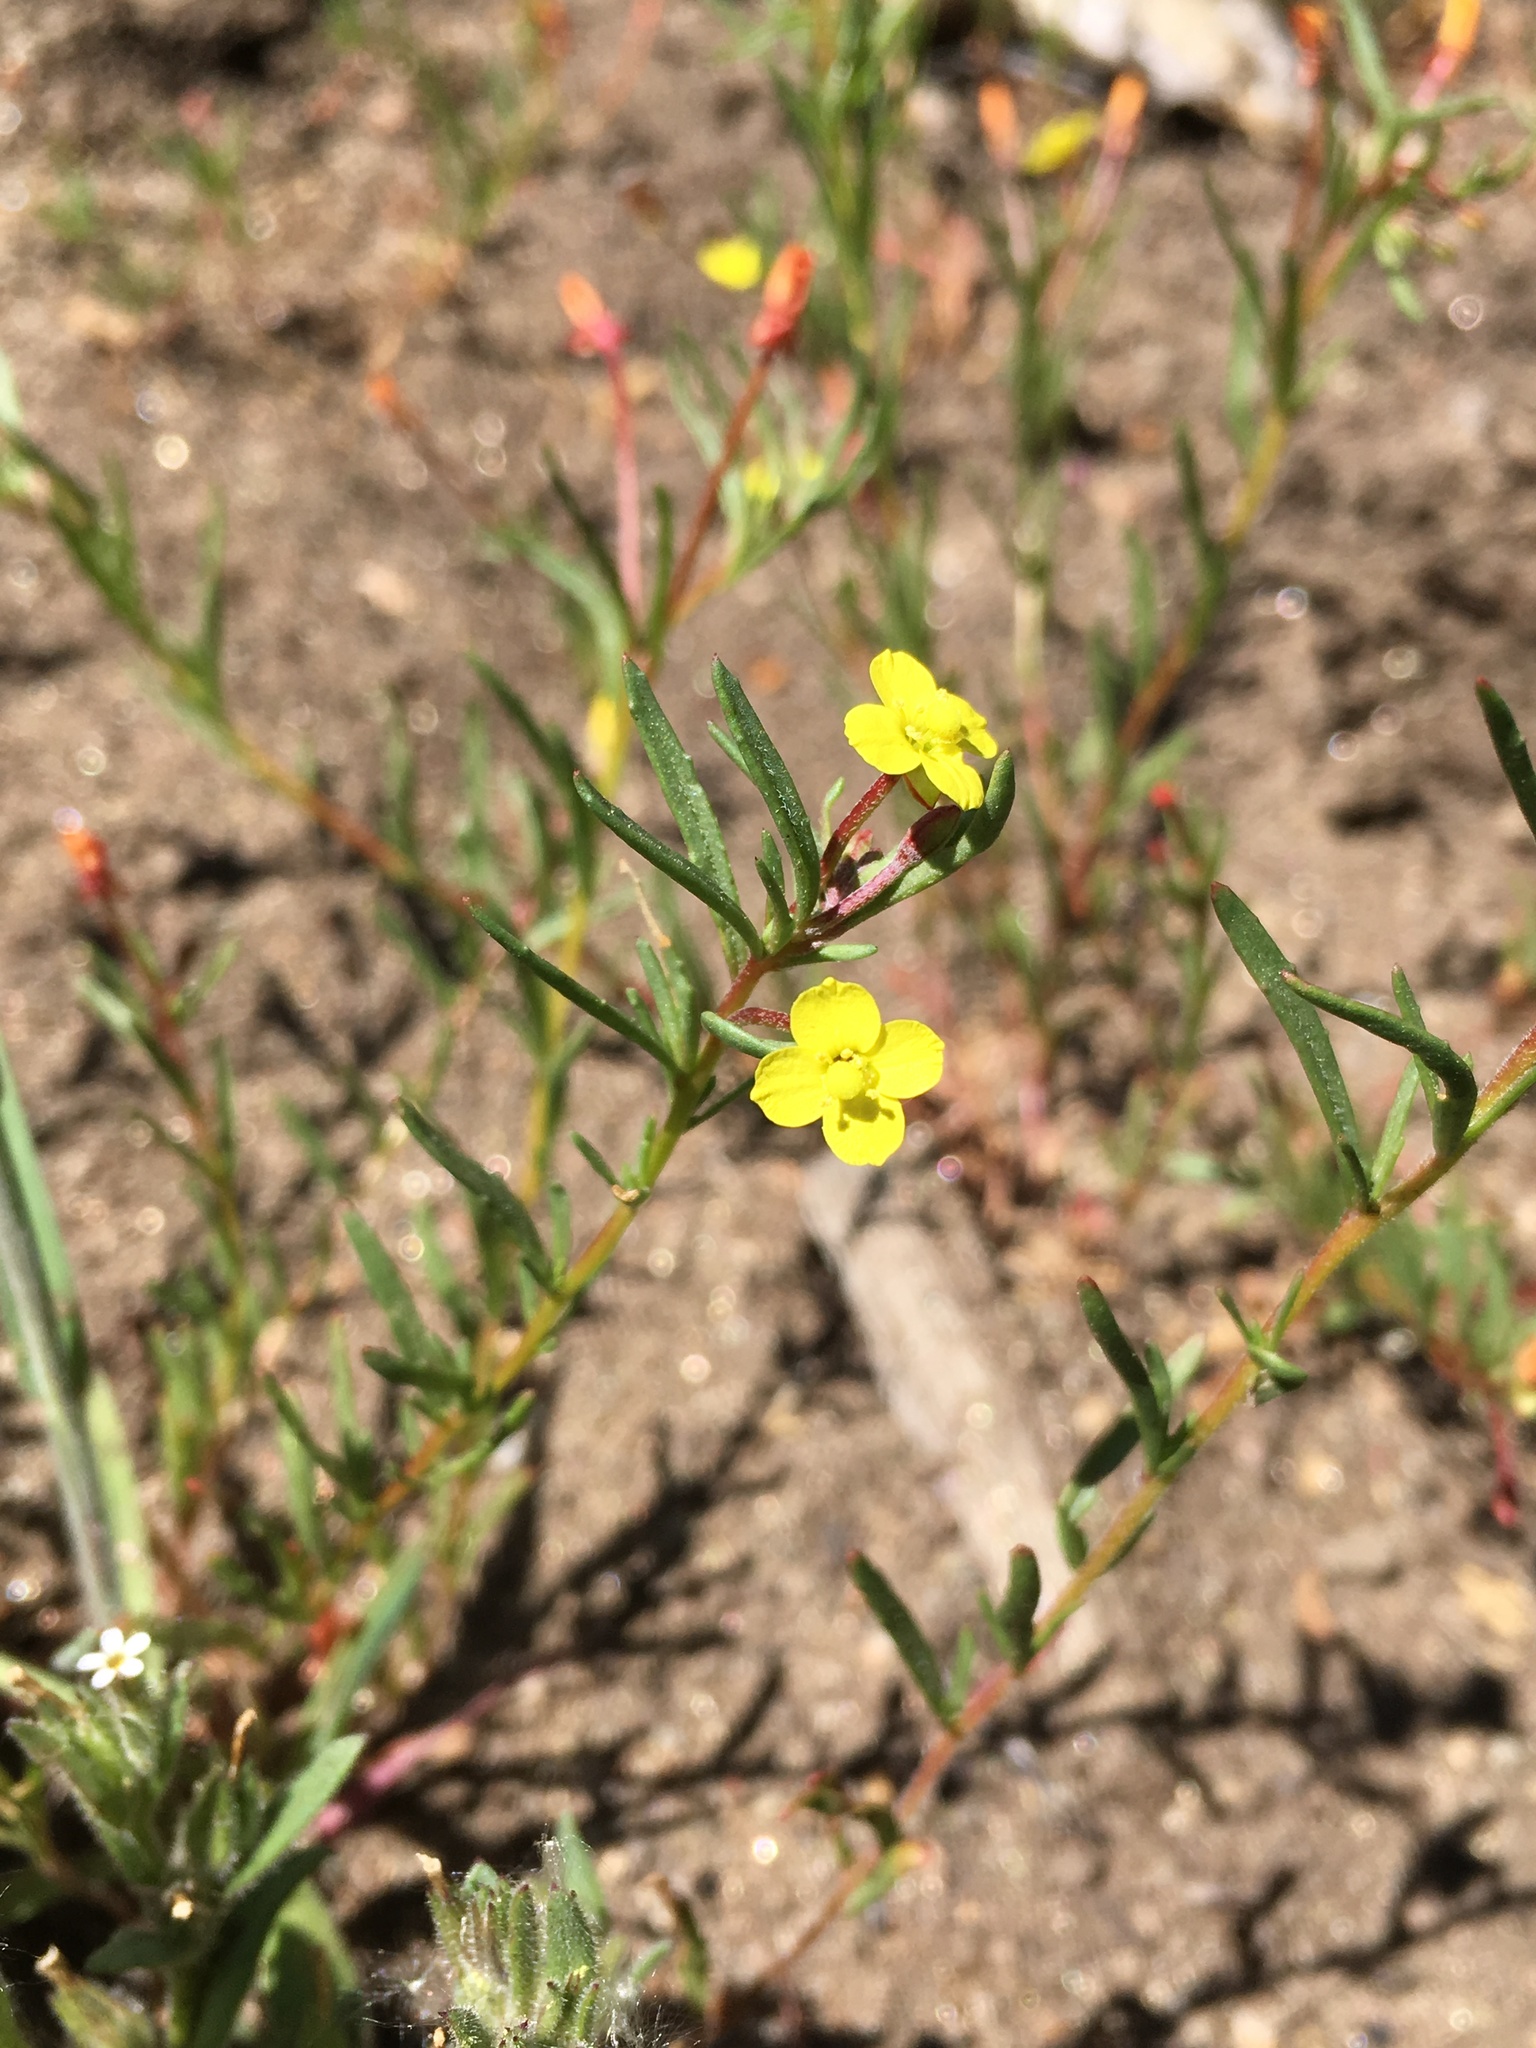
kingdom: Plantae
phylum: Tracheophyta
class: Magnoliopsida
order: Myrtales
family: Onagraceae
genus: Camissonia
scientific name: Camissonia strigulosa
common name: Contorted-primrose
